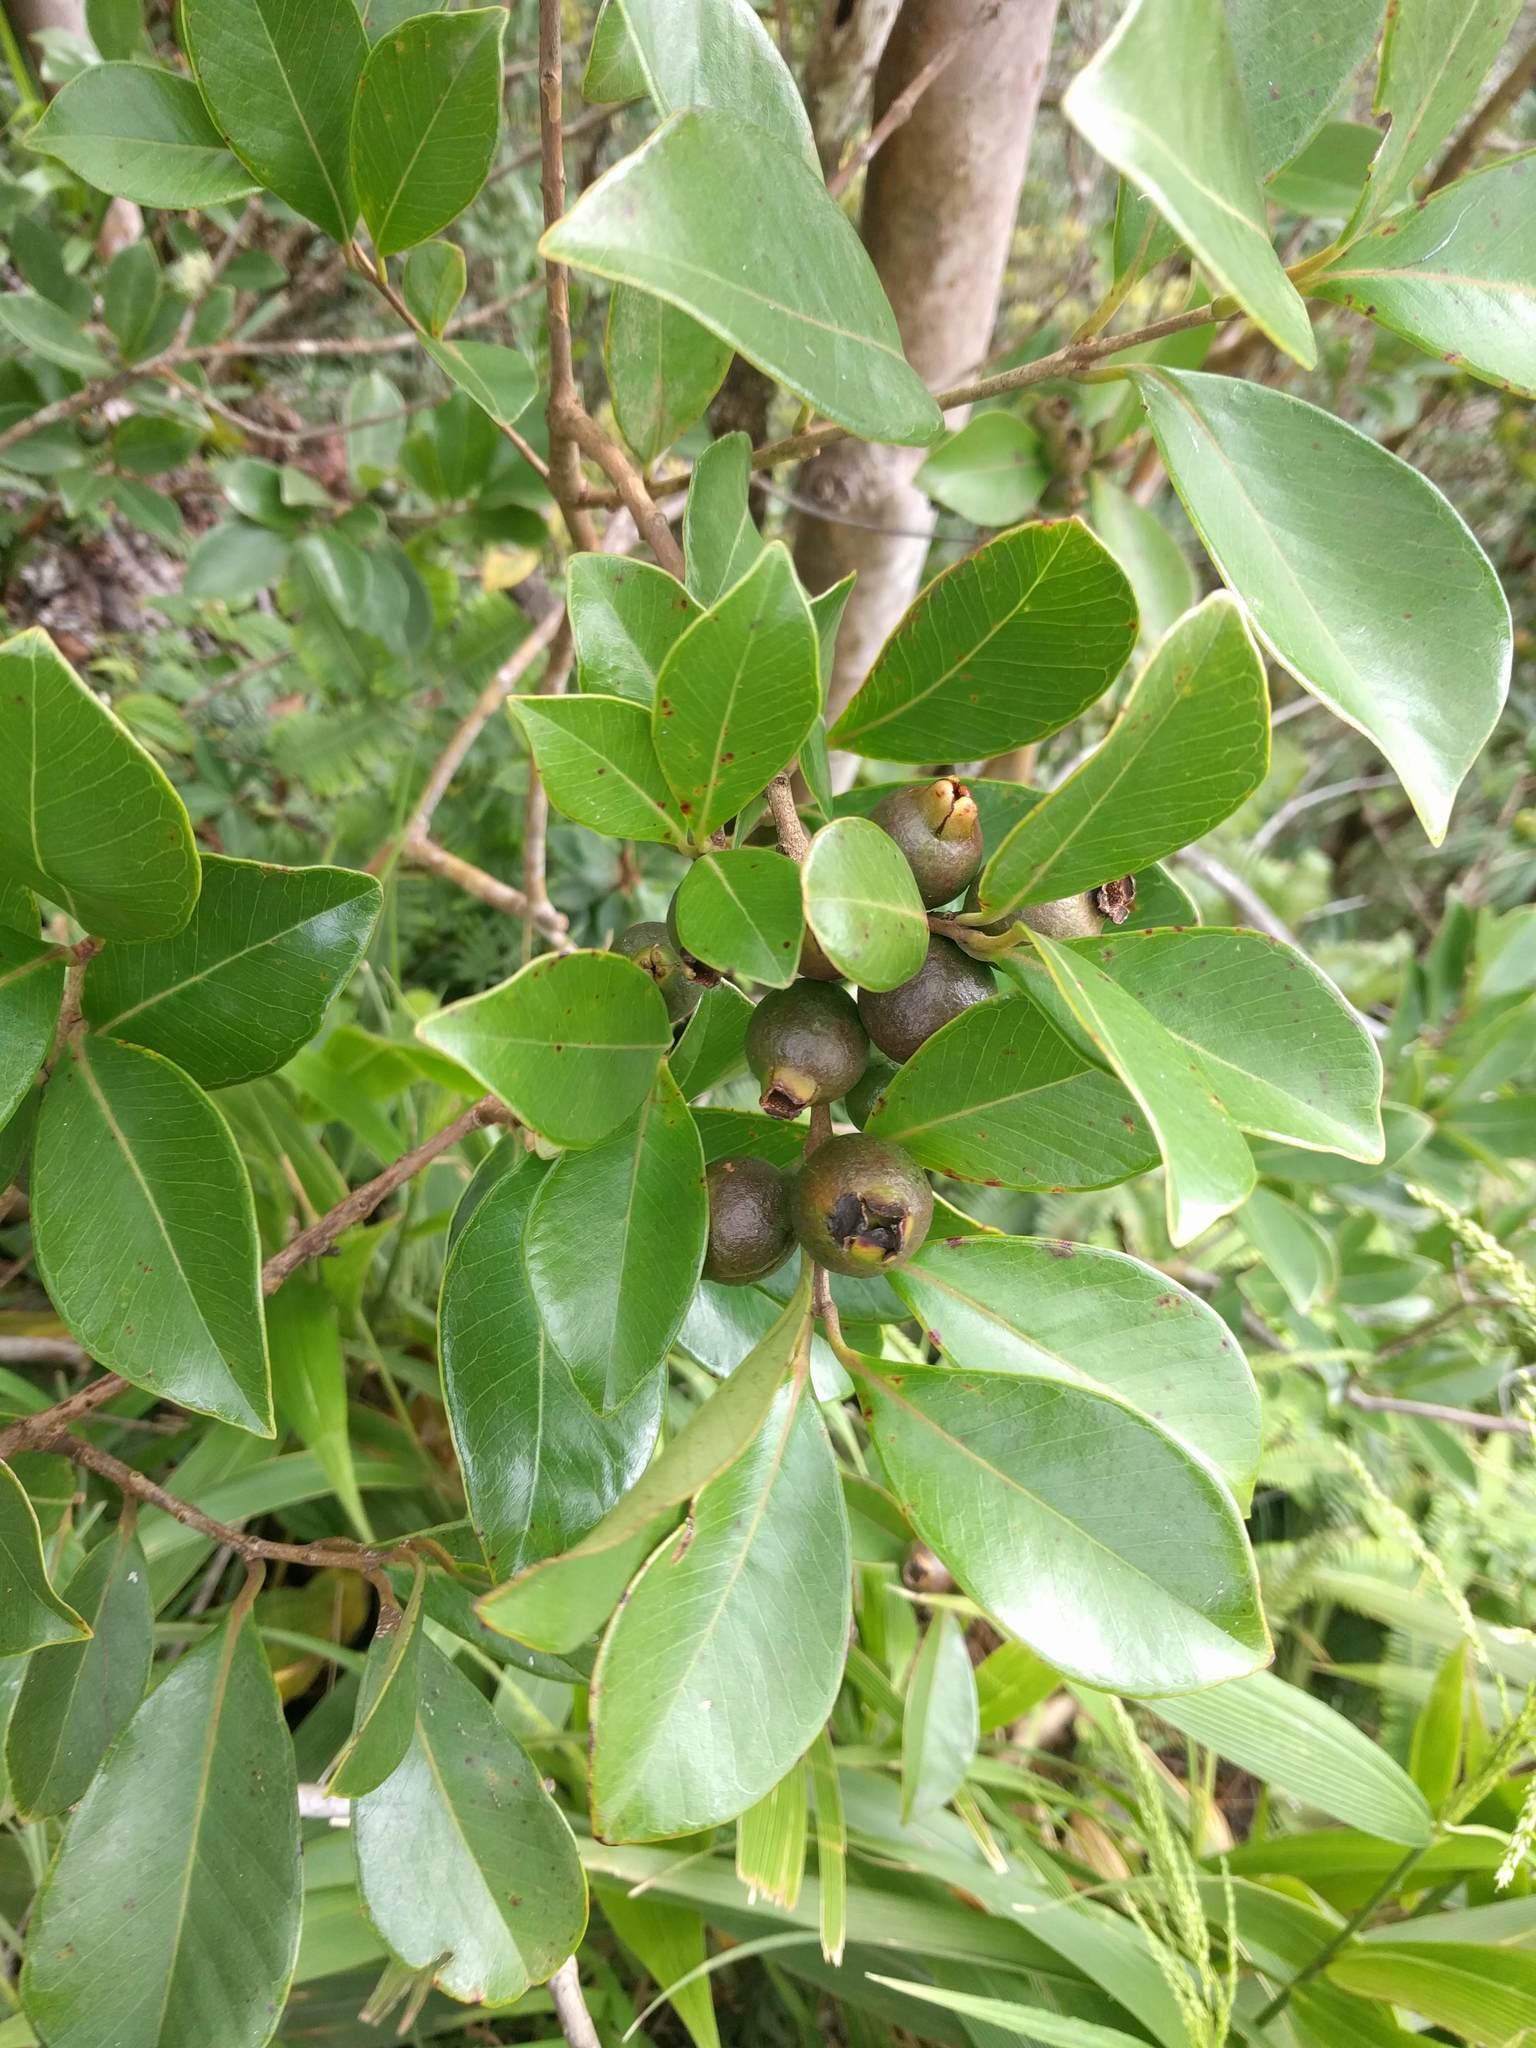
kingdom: Plantae
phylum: Tracheophyta
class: Magnoliopsida
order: Myrtales
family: Myrtaceae
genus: Psidium
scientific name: Psidium cattleianum
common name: Strawberry guava
